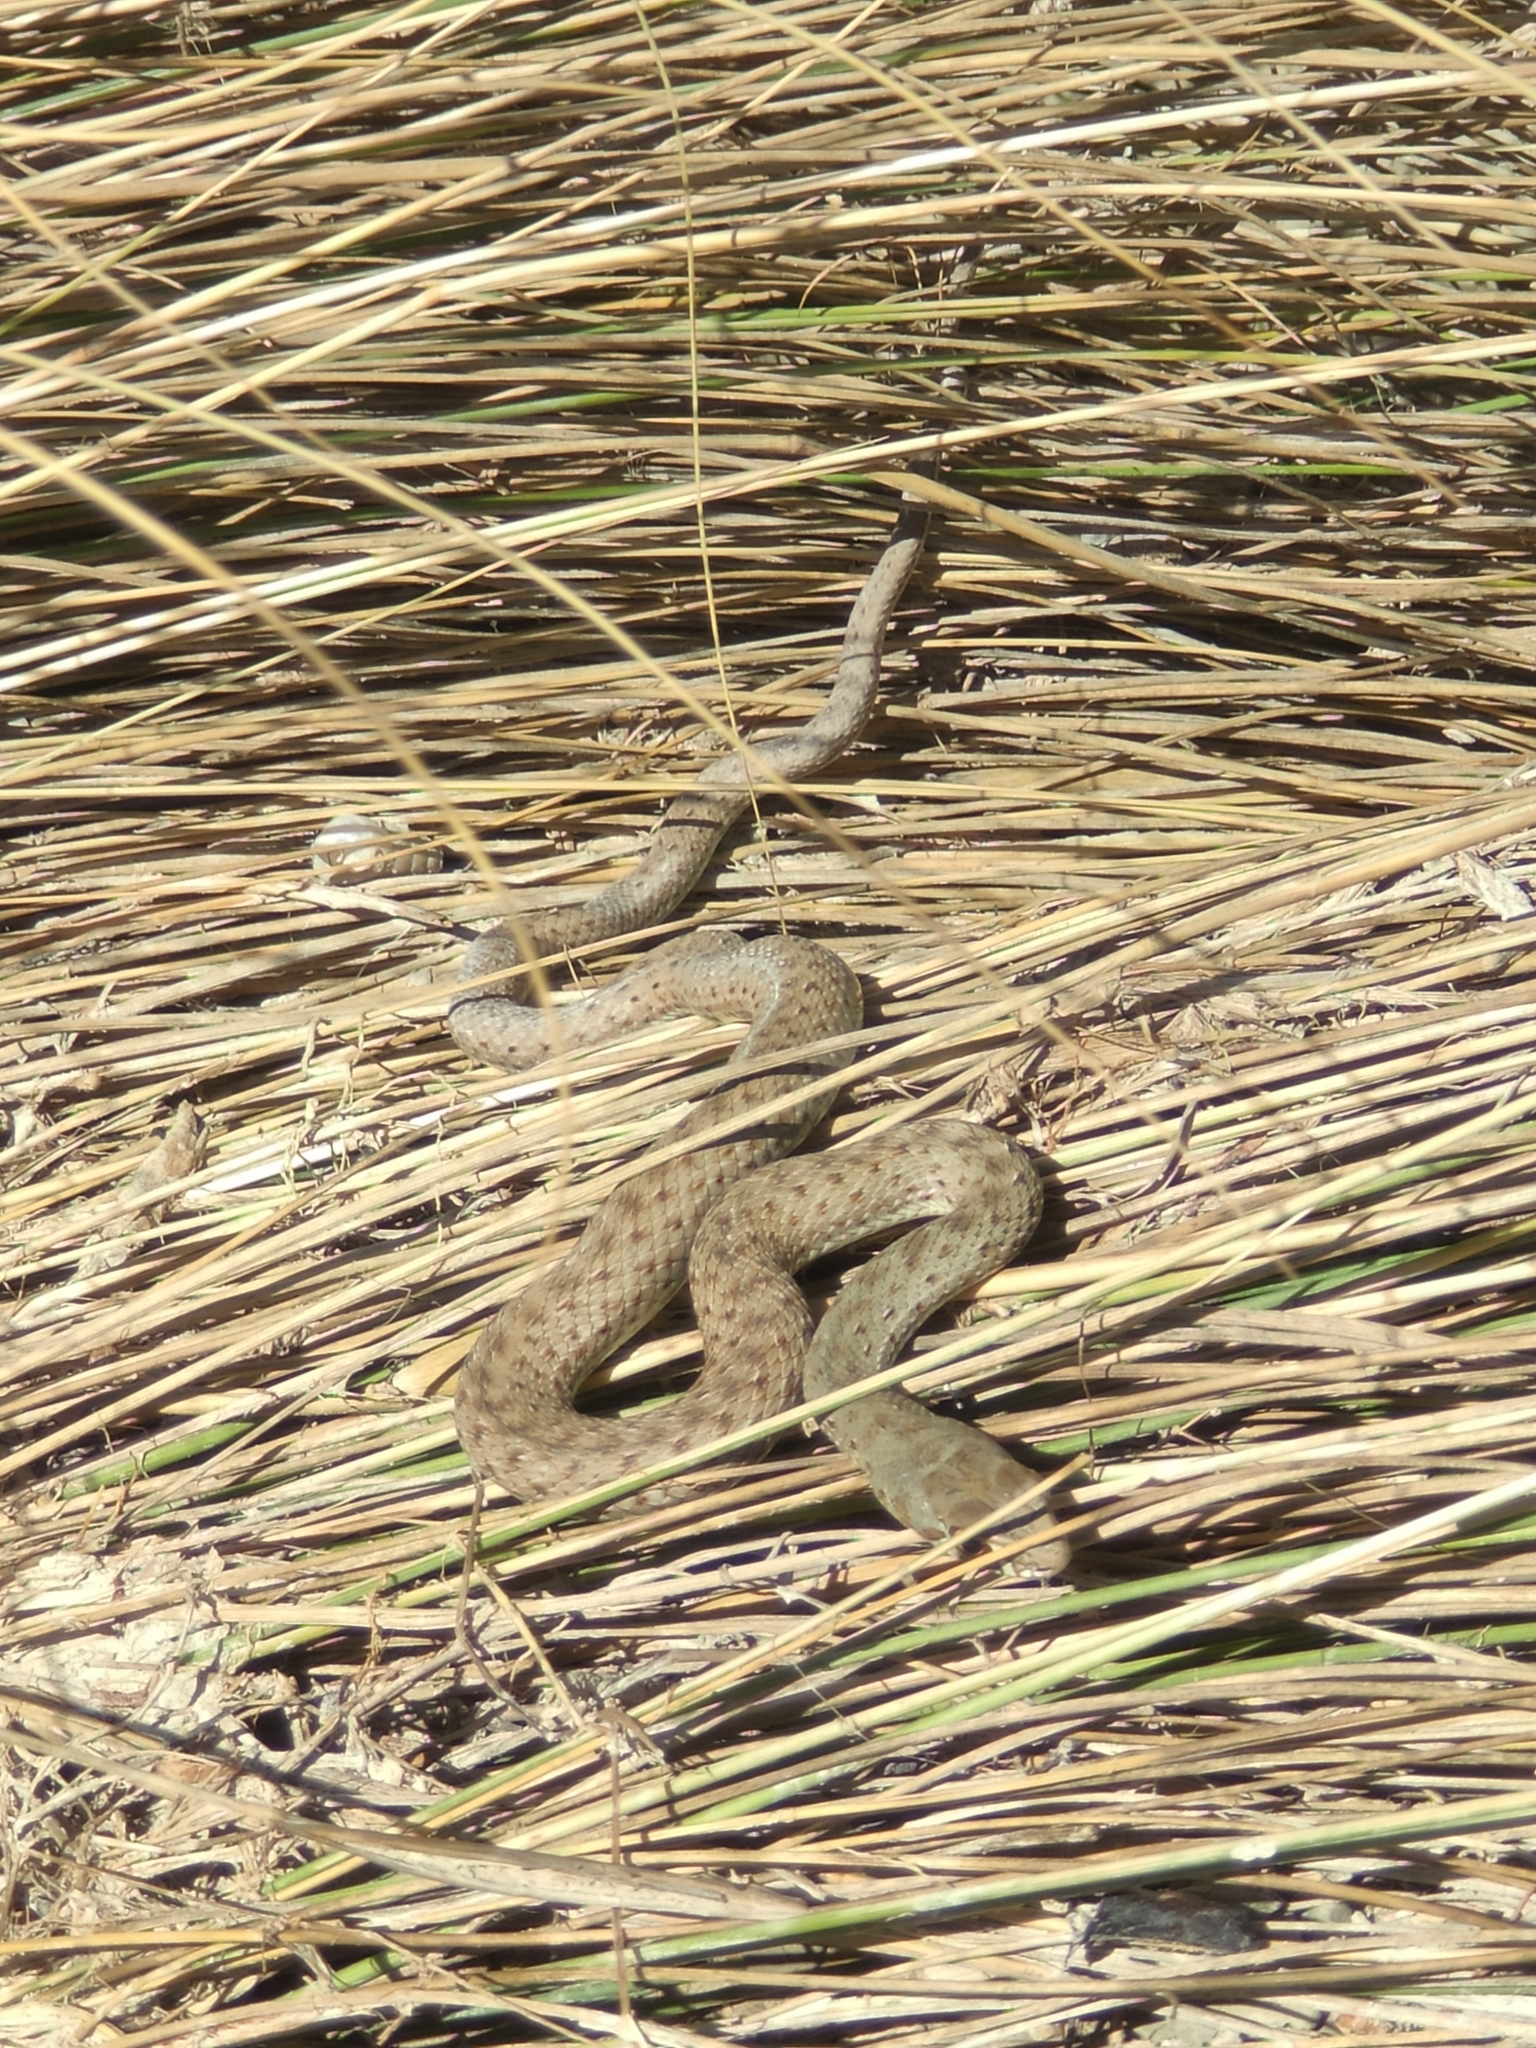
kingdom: Animalia
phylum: Chordata
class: Squamata
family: Psammophiidae
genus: Malpolon
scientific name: Malpolon monspessulanus
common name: Montpellier snake
